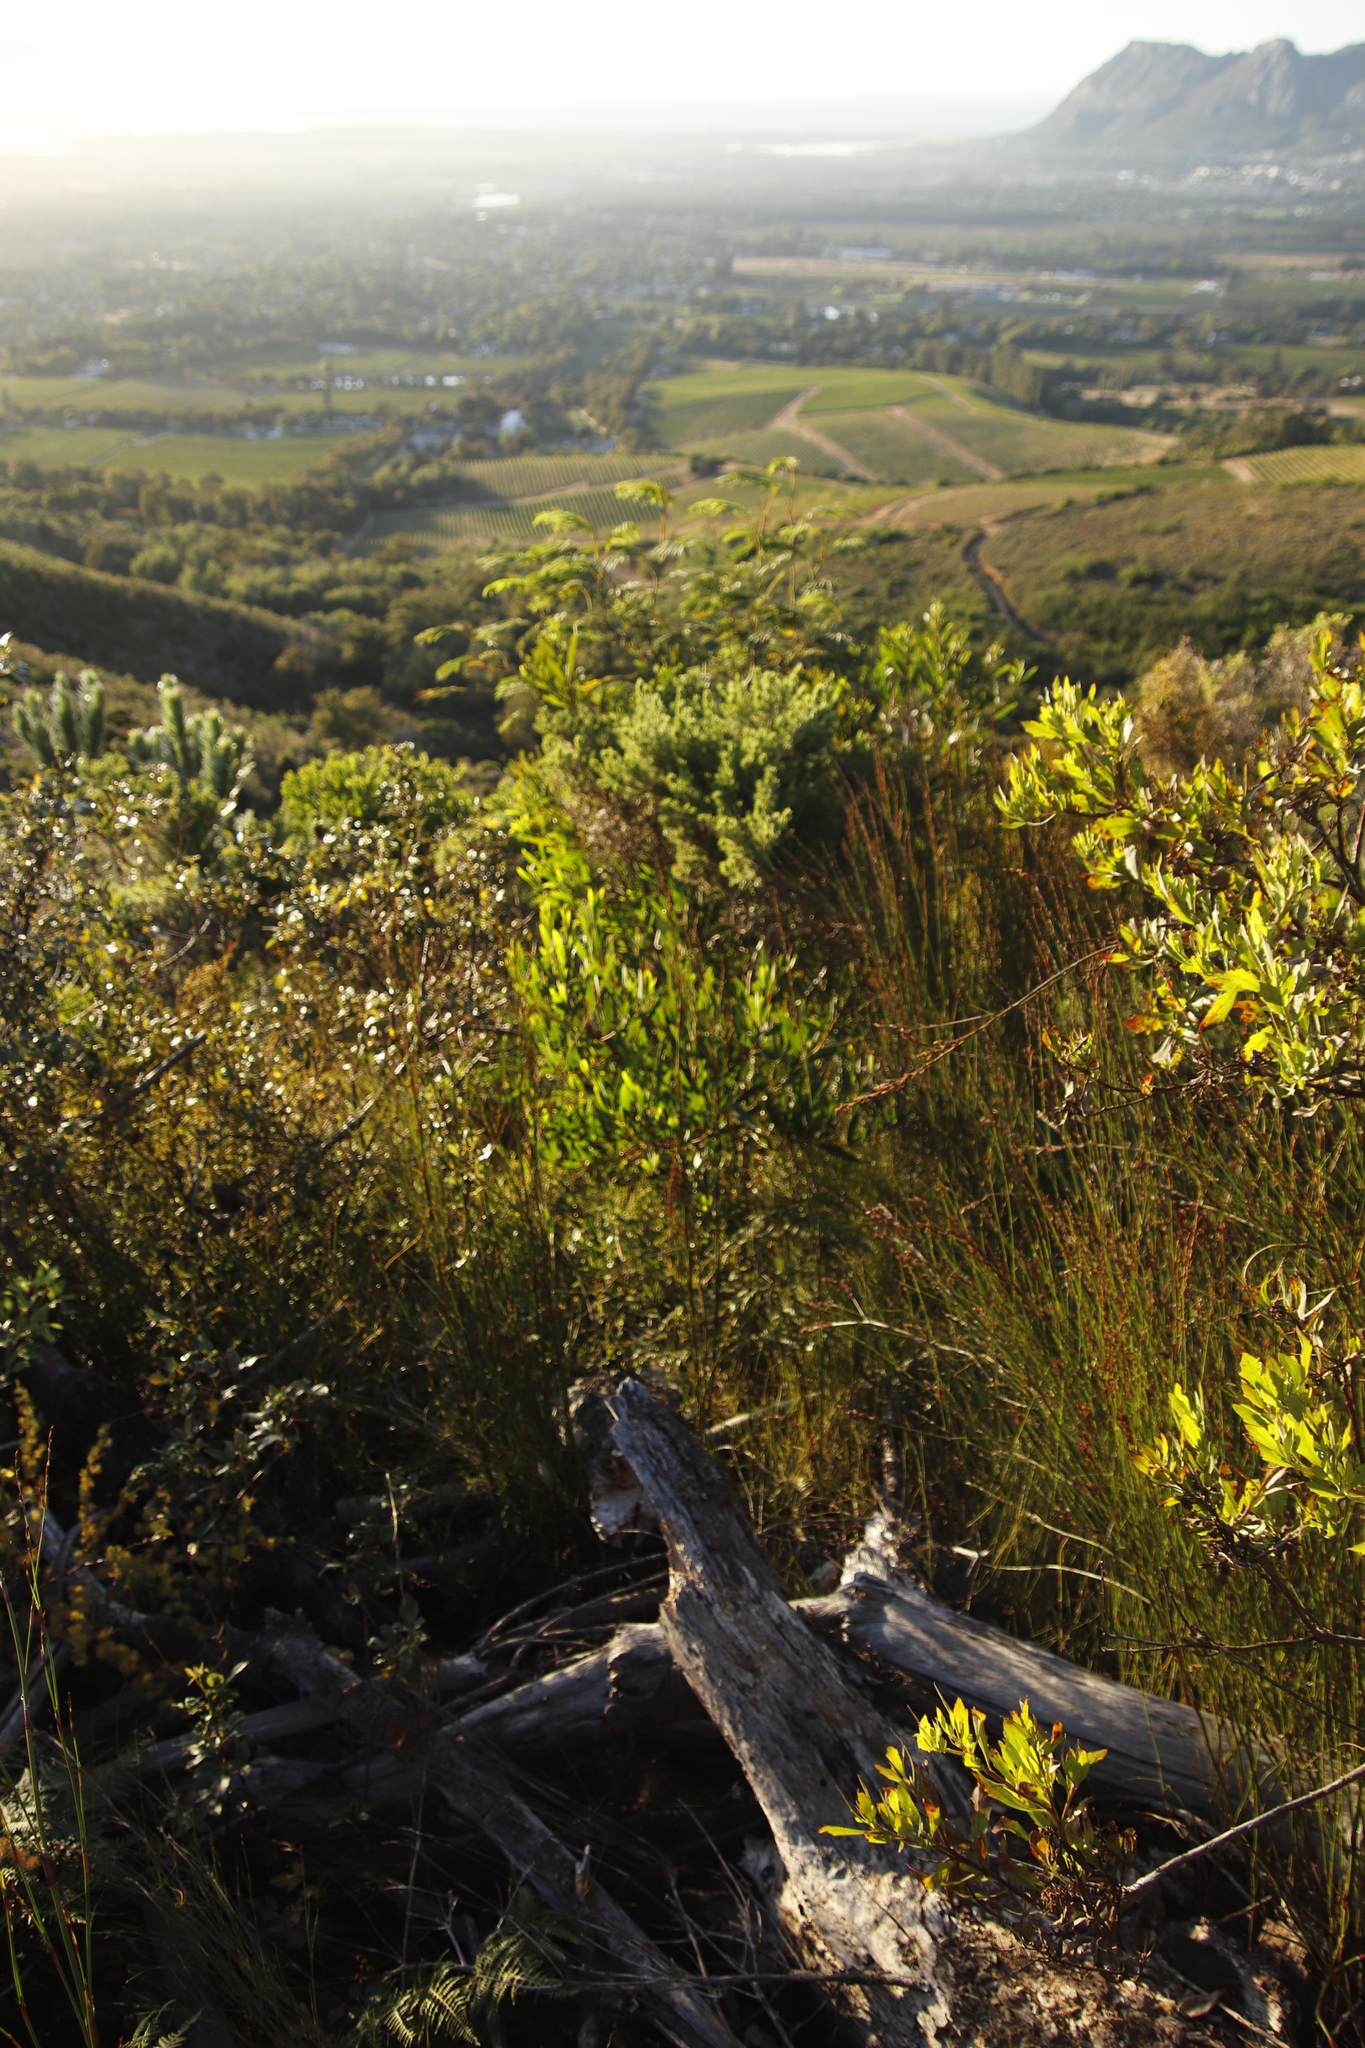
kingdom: Plantae
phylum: Tracheophyta
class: Liliopsida
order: Poales
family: Restionaceae
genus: Restio
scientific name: Restio multiflorus
